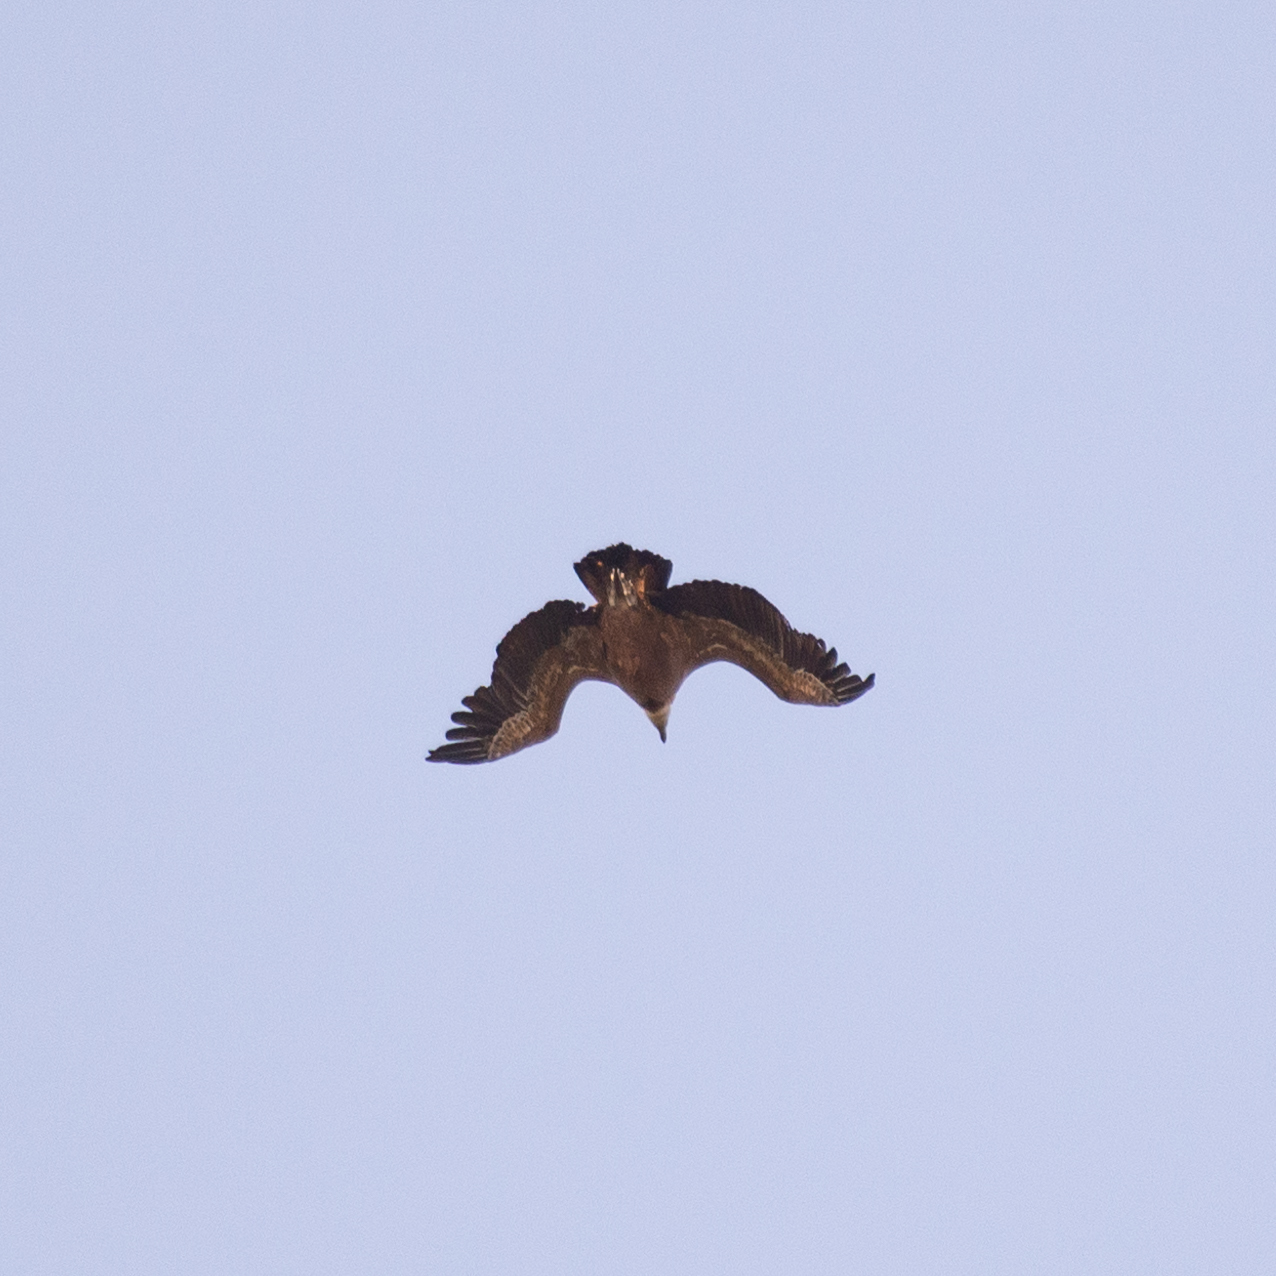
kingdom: Animalia
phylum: Chordata
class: Aves
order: Accipitriformes
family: Accipitridae
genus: Gyps
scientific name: Gyps fulvus
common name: Griffon vulture
